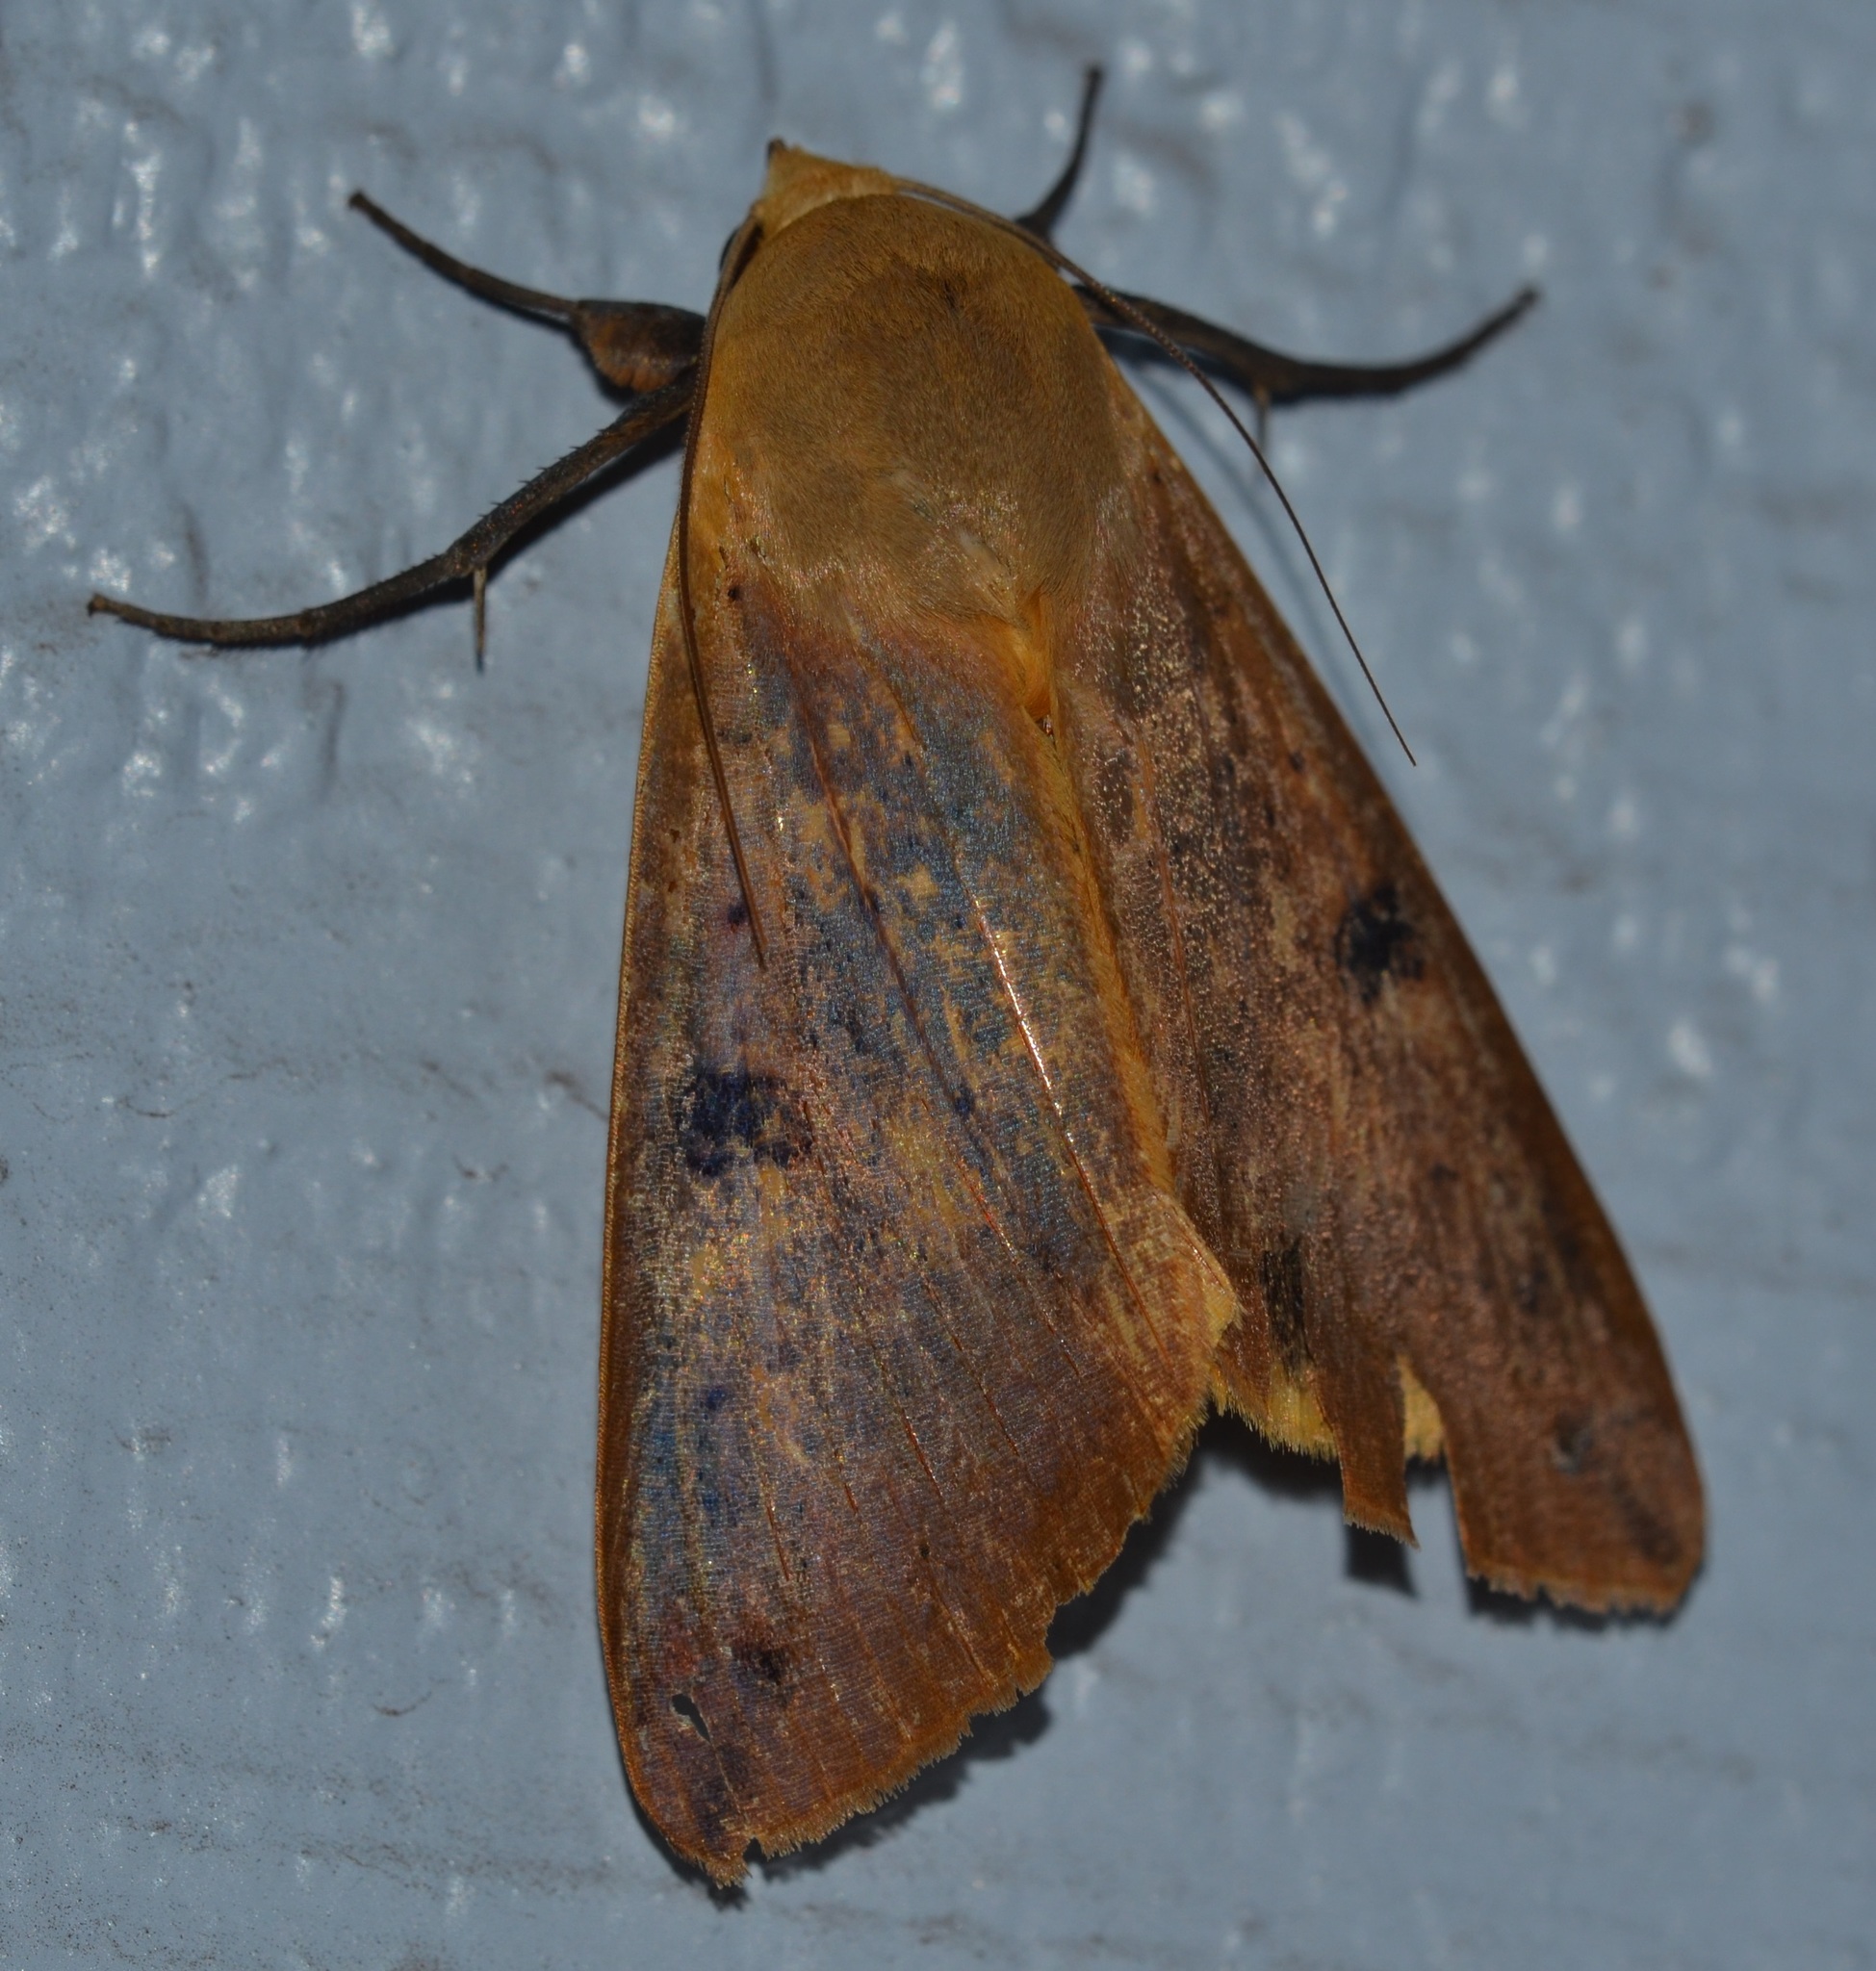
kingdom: Animalia
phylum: Arthropoda
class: Insecta
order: Lepidoptera
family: Erebidae
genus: Ophiusa
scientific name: Ophiusa disjungens
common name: Moth
